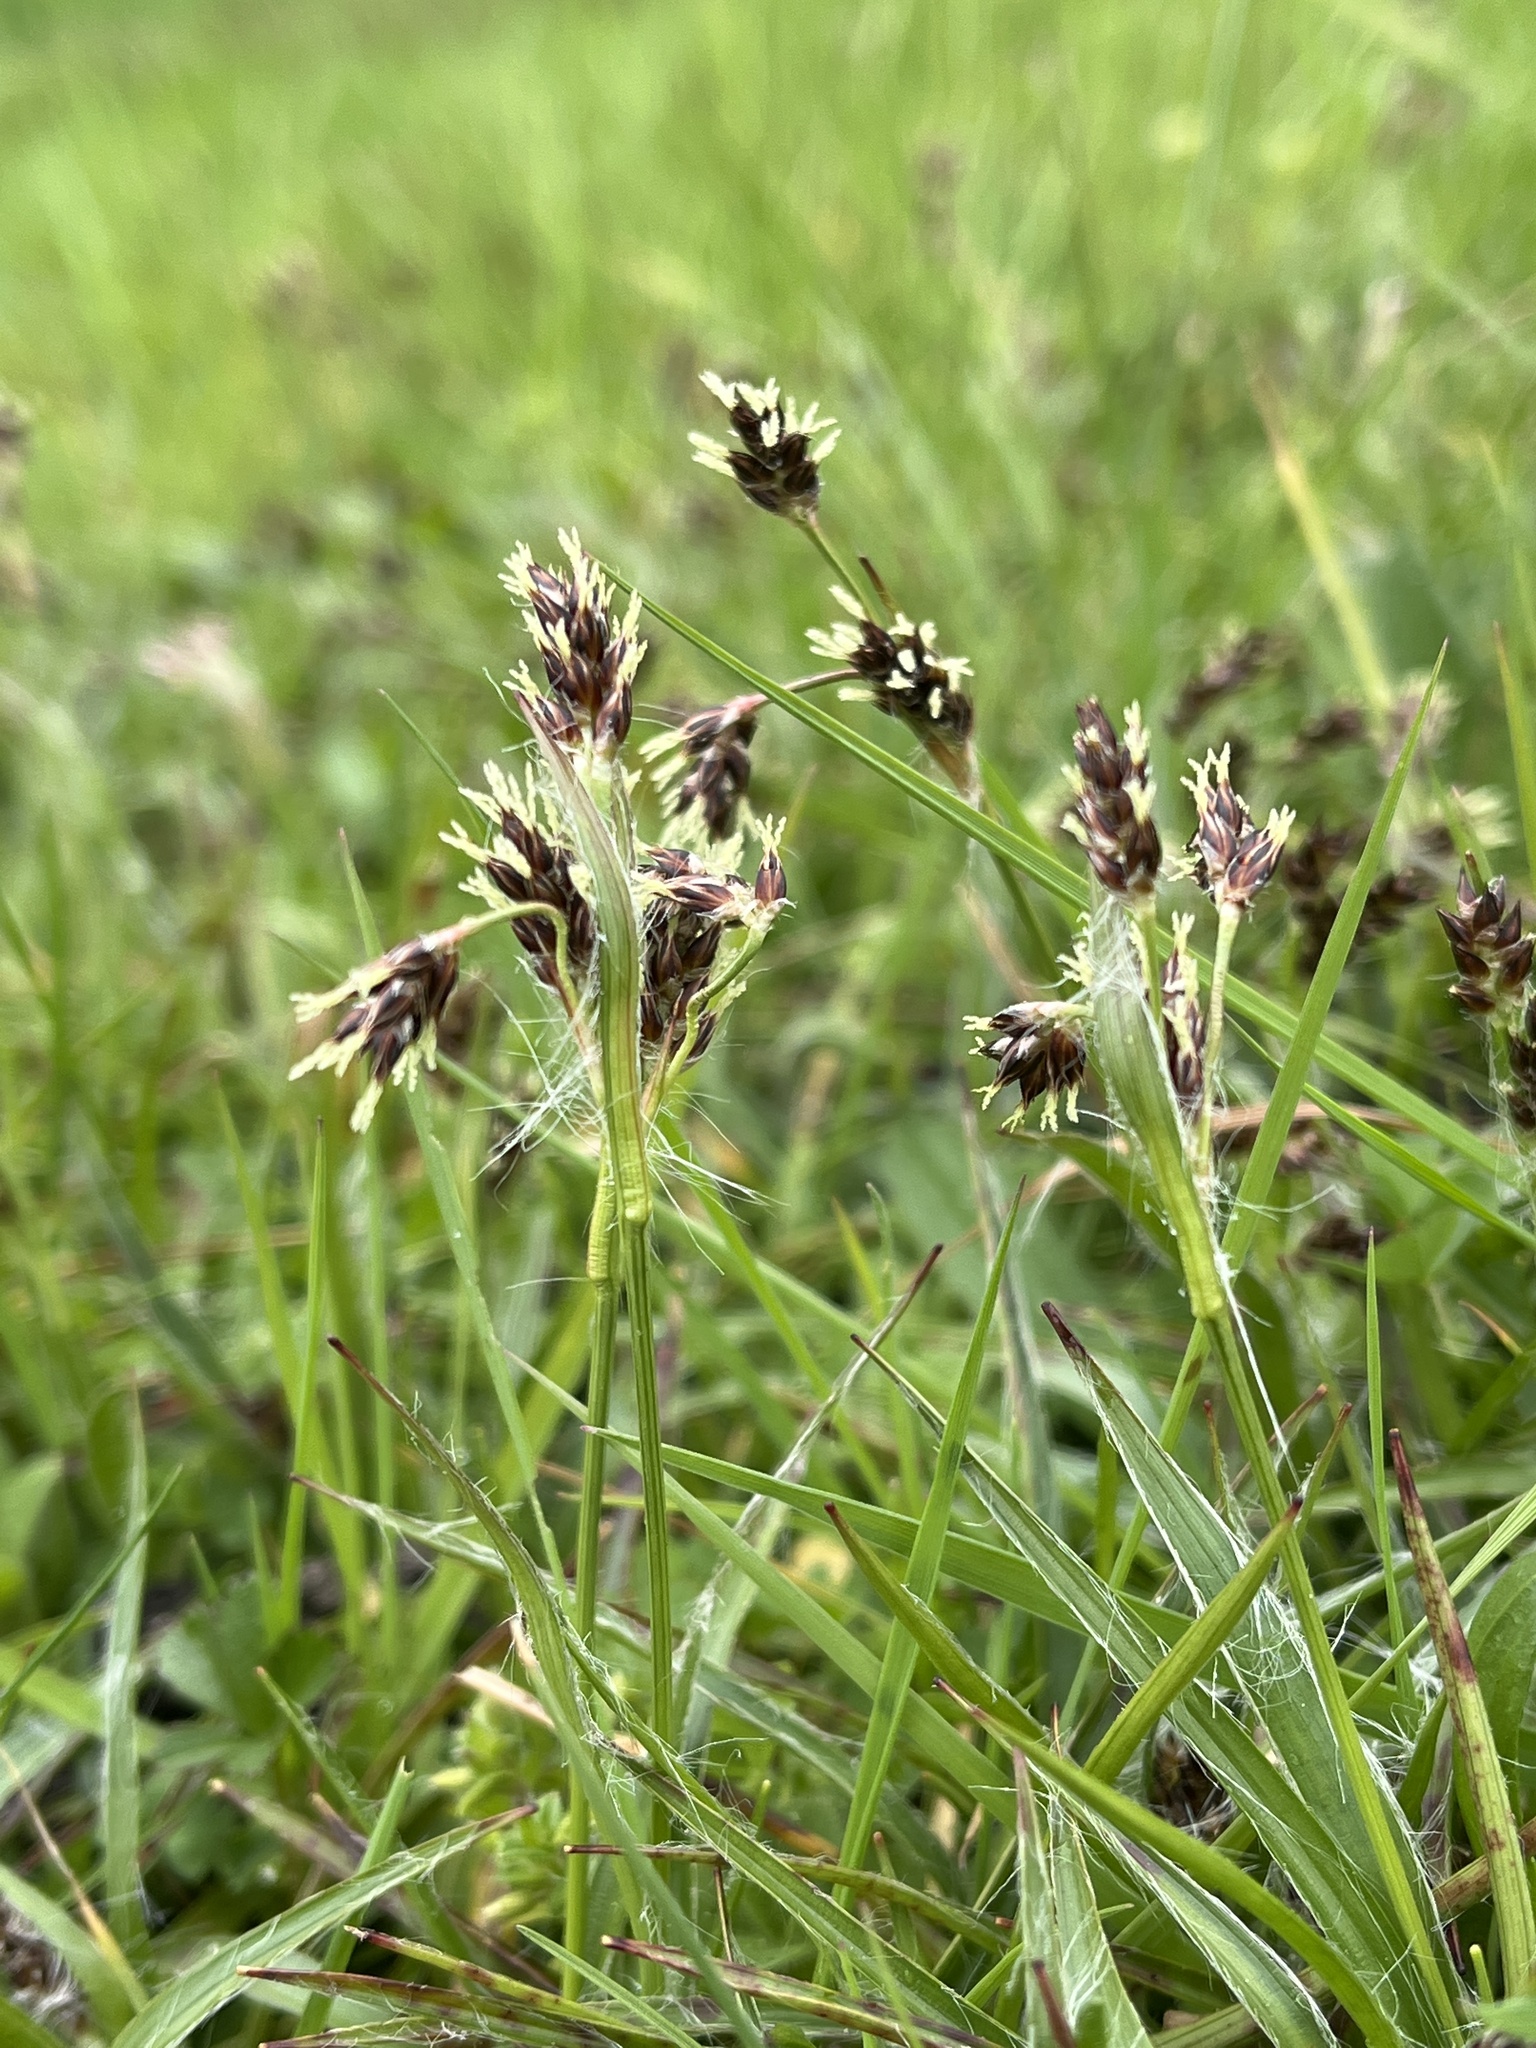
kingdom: Plantae
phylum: Tracheophyta
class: Liliopsida
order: Poales
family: Juncaceae
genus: Luzula
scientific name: Luzula campestris
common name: Field wood-rush
